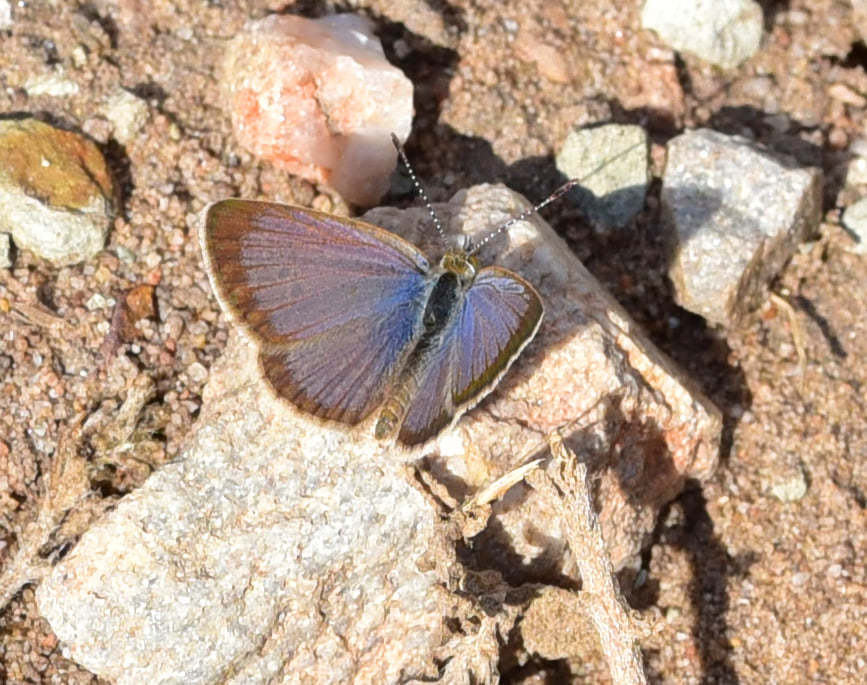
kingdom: Animalia
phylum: Arthropoda
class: Insecta
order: Lepidoptera
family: Lycaenidae
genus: Zizeeria
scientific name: Zizeeria knysna
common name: African grass blue
